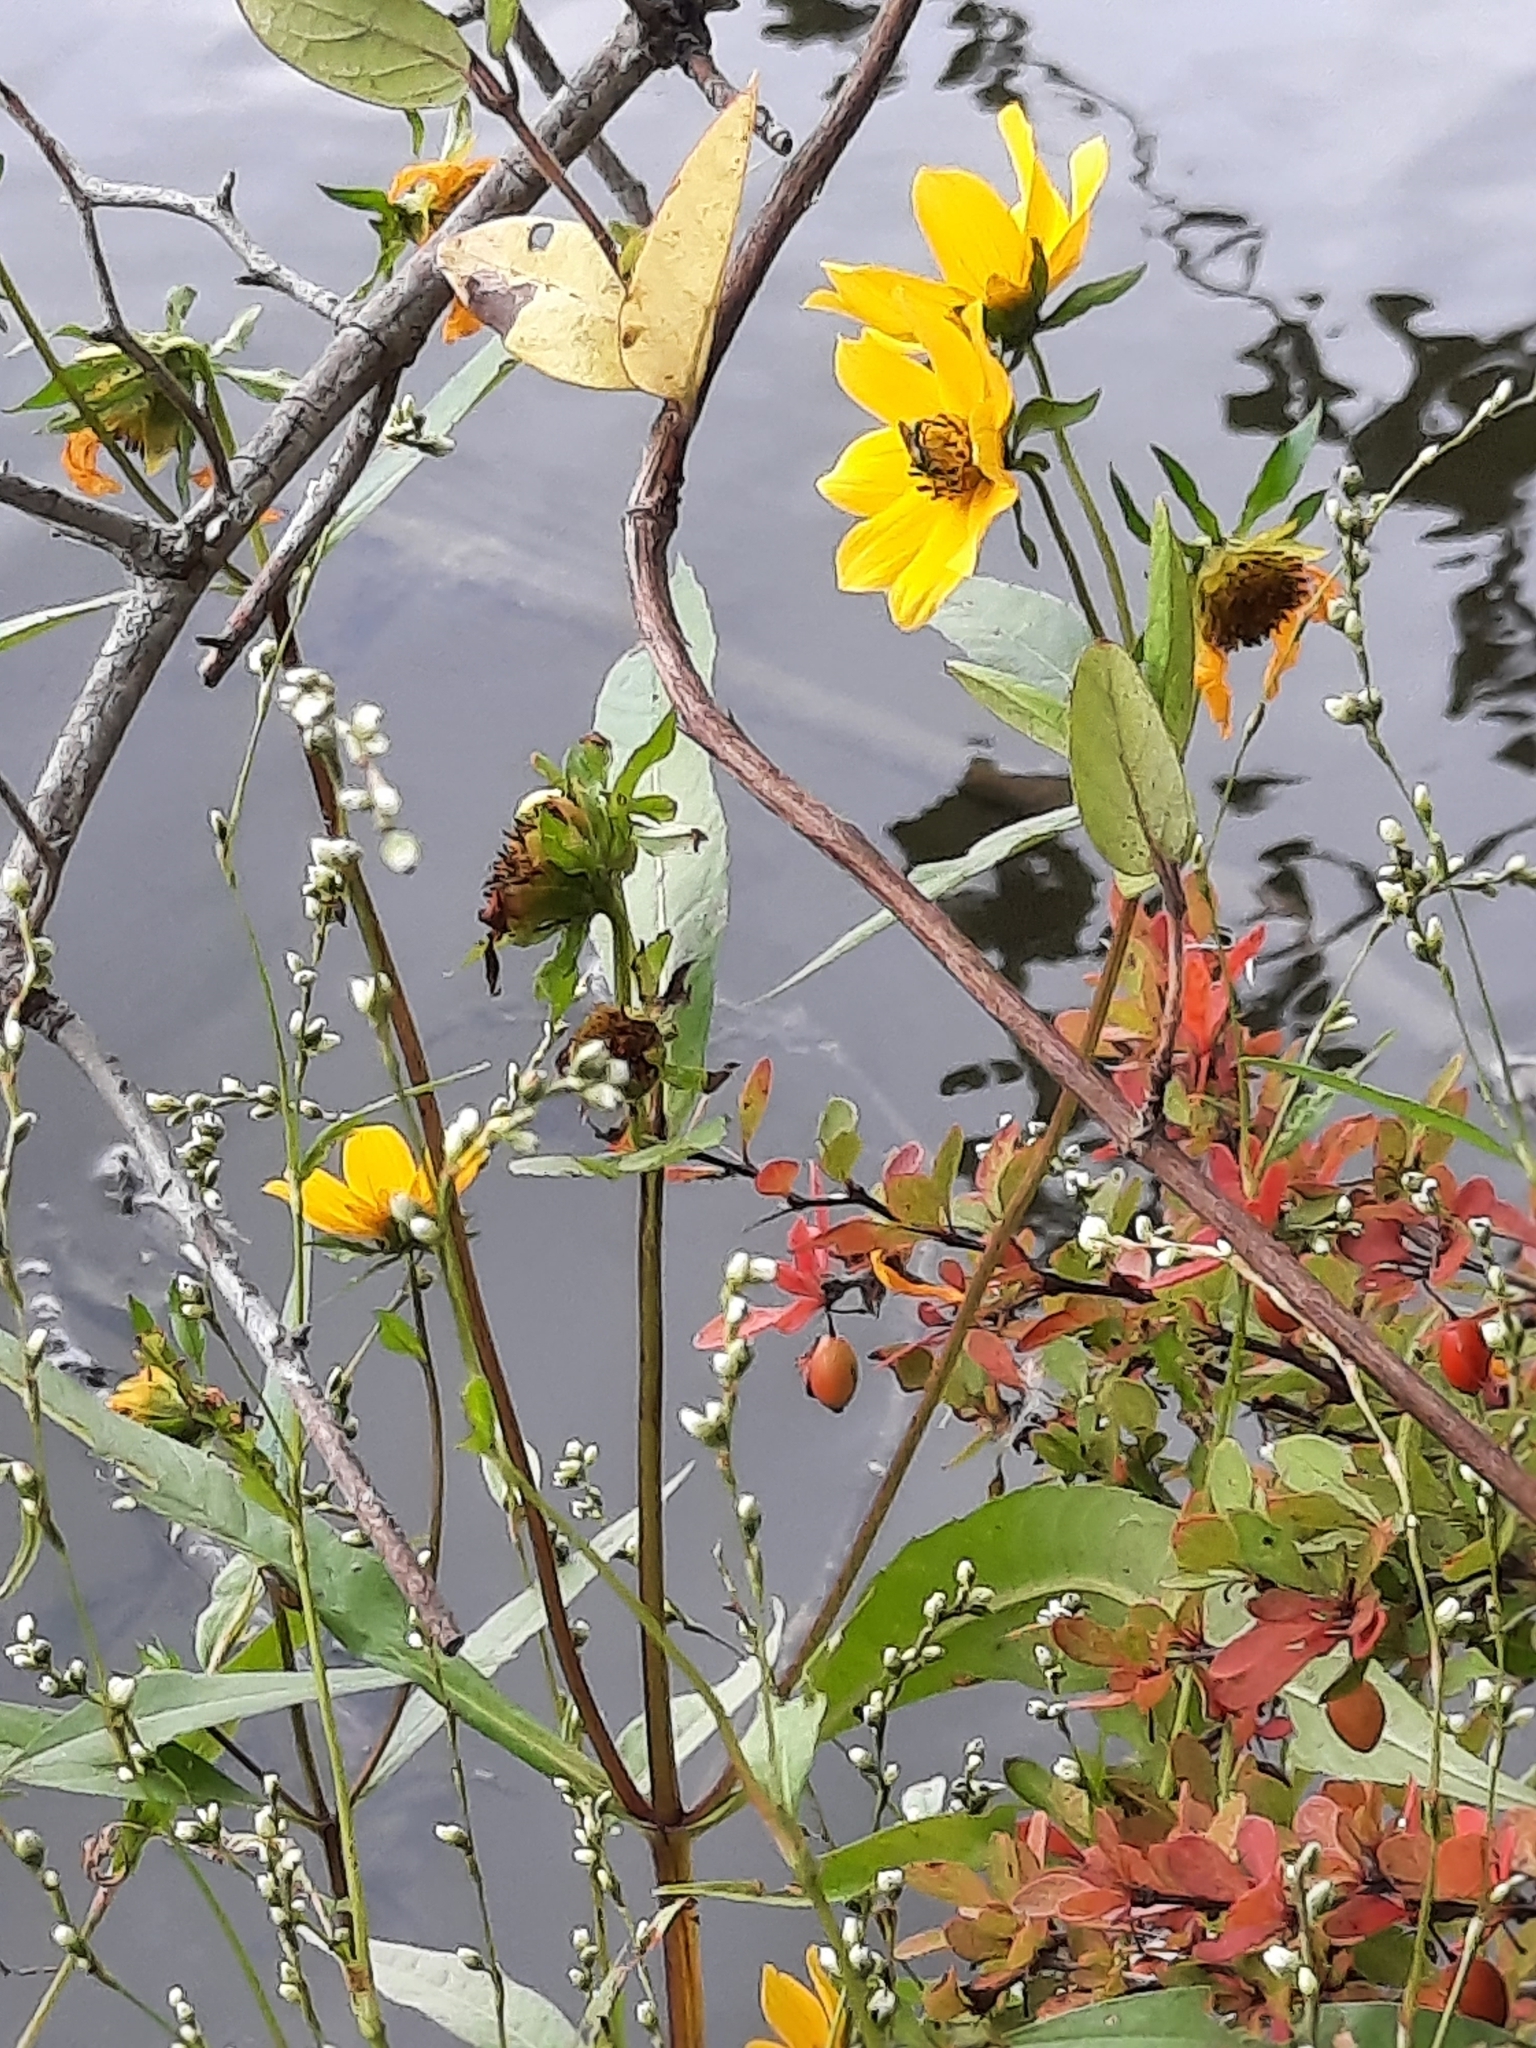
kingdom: Plantae
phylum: Tracheophyta
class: Magnoliopsida
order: Asterales
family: Asteraceae
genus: Bidens
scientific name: Bidens laevis
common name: Larger bur-marigold
